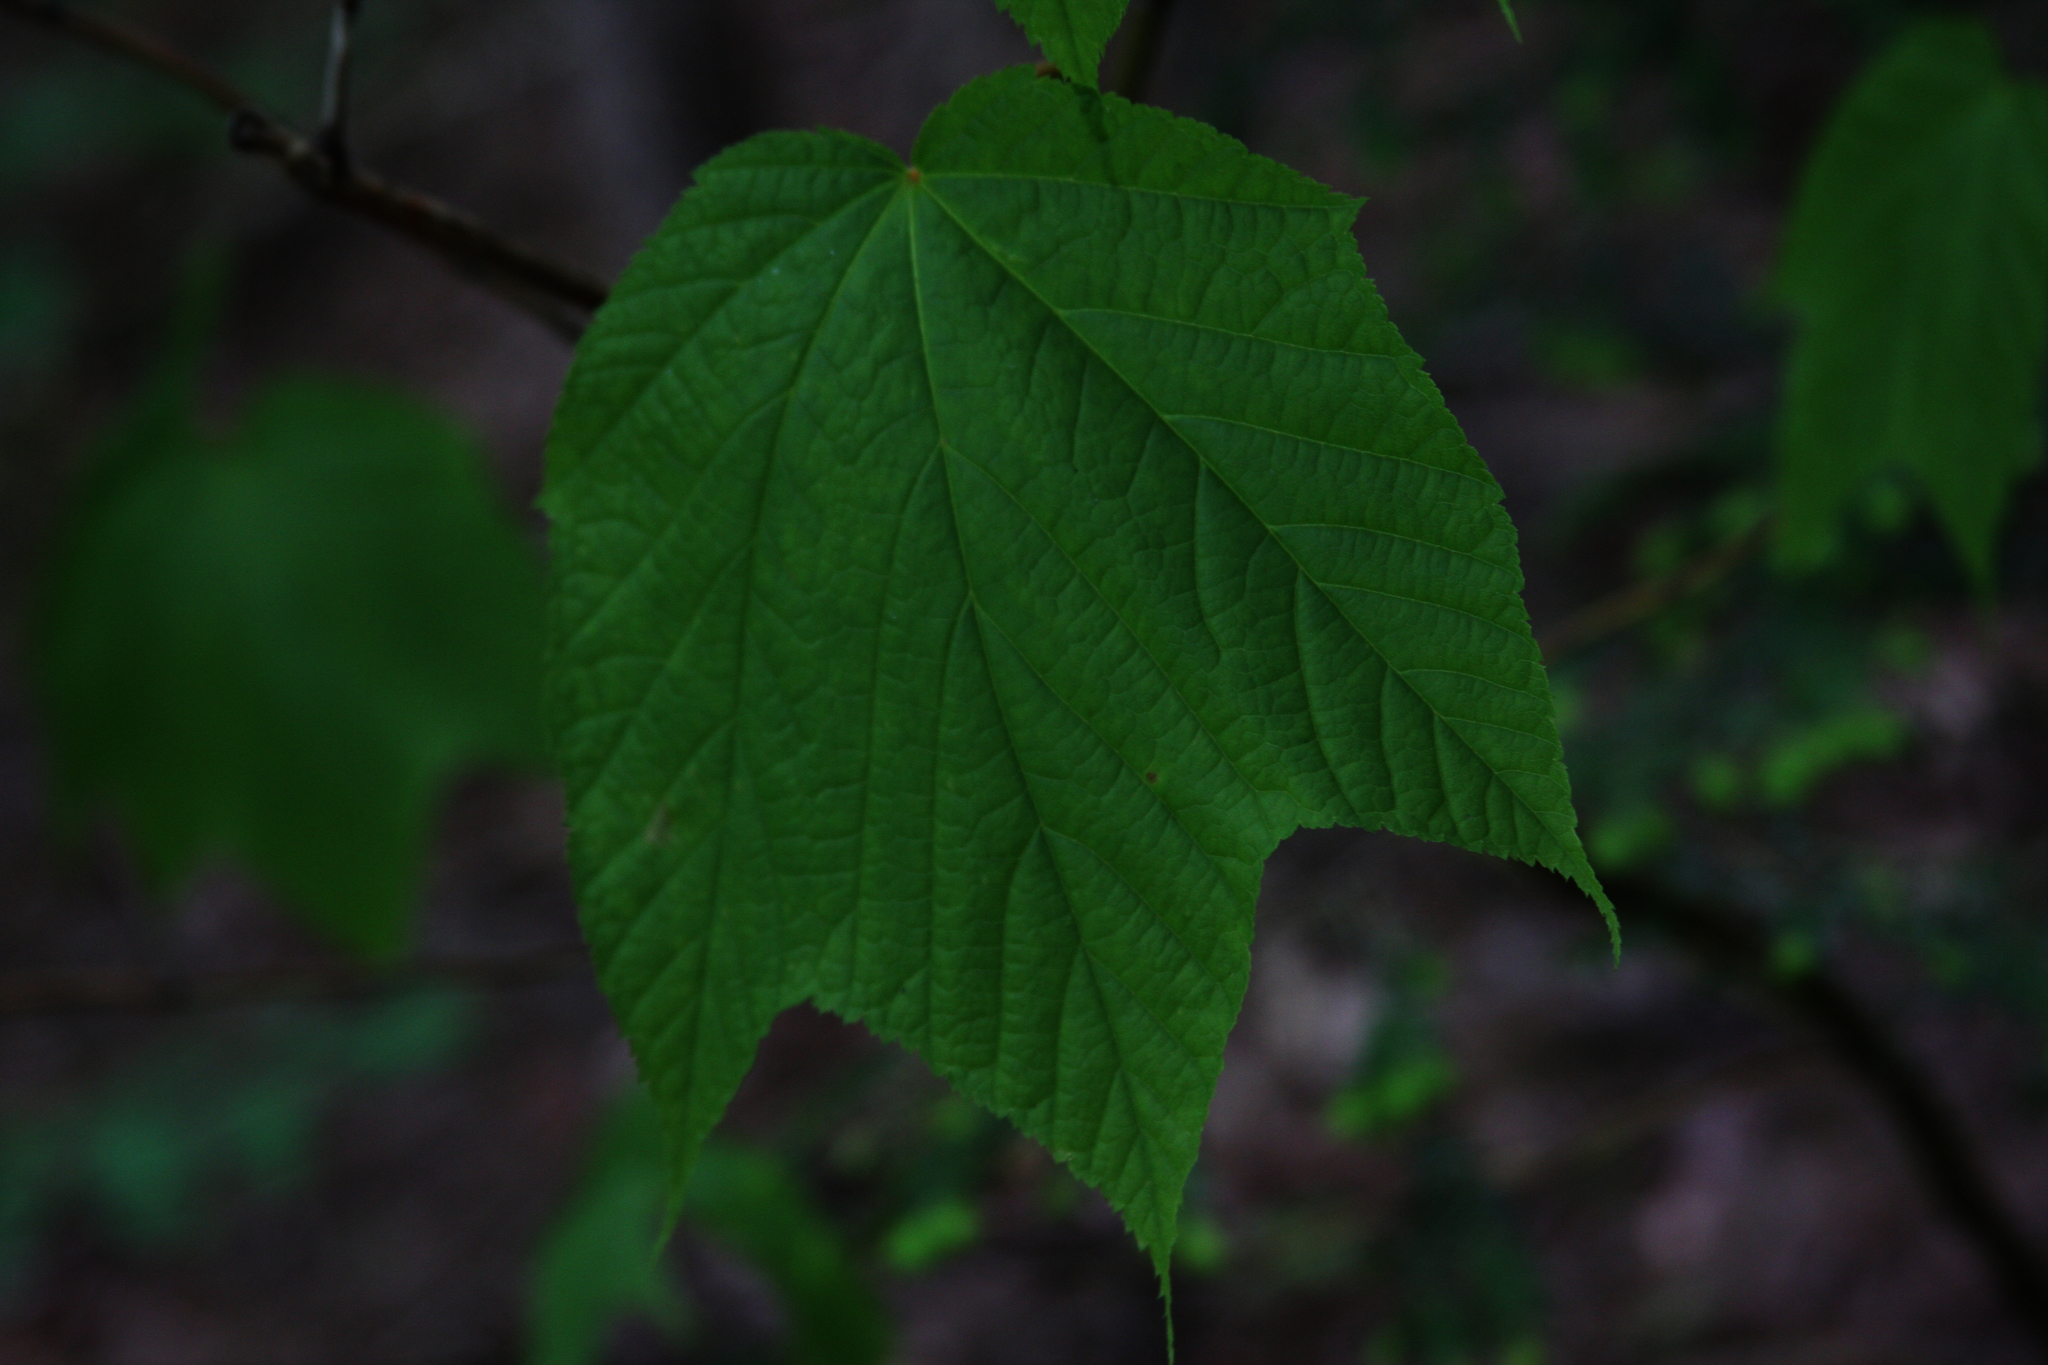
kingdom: Plantae
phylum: Tracheophyta
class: Magnoliopsida
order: Sapindales
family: Sapindaceae
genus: Acer
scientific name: Acer pensylvanicum
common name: Moosewood
